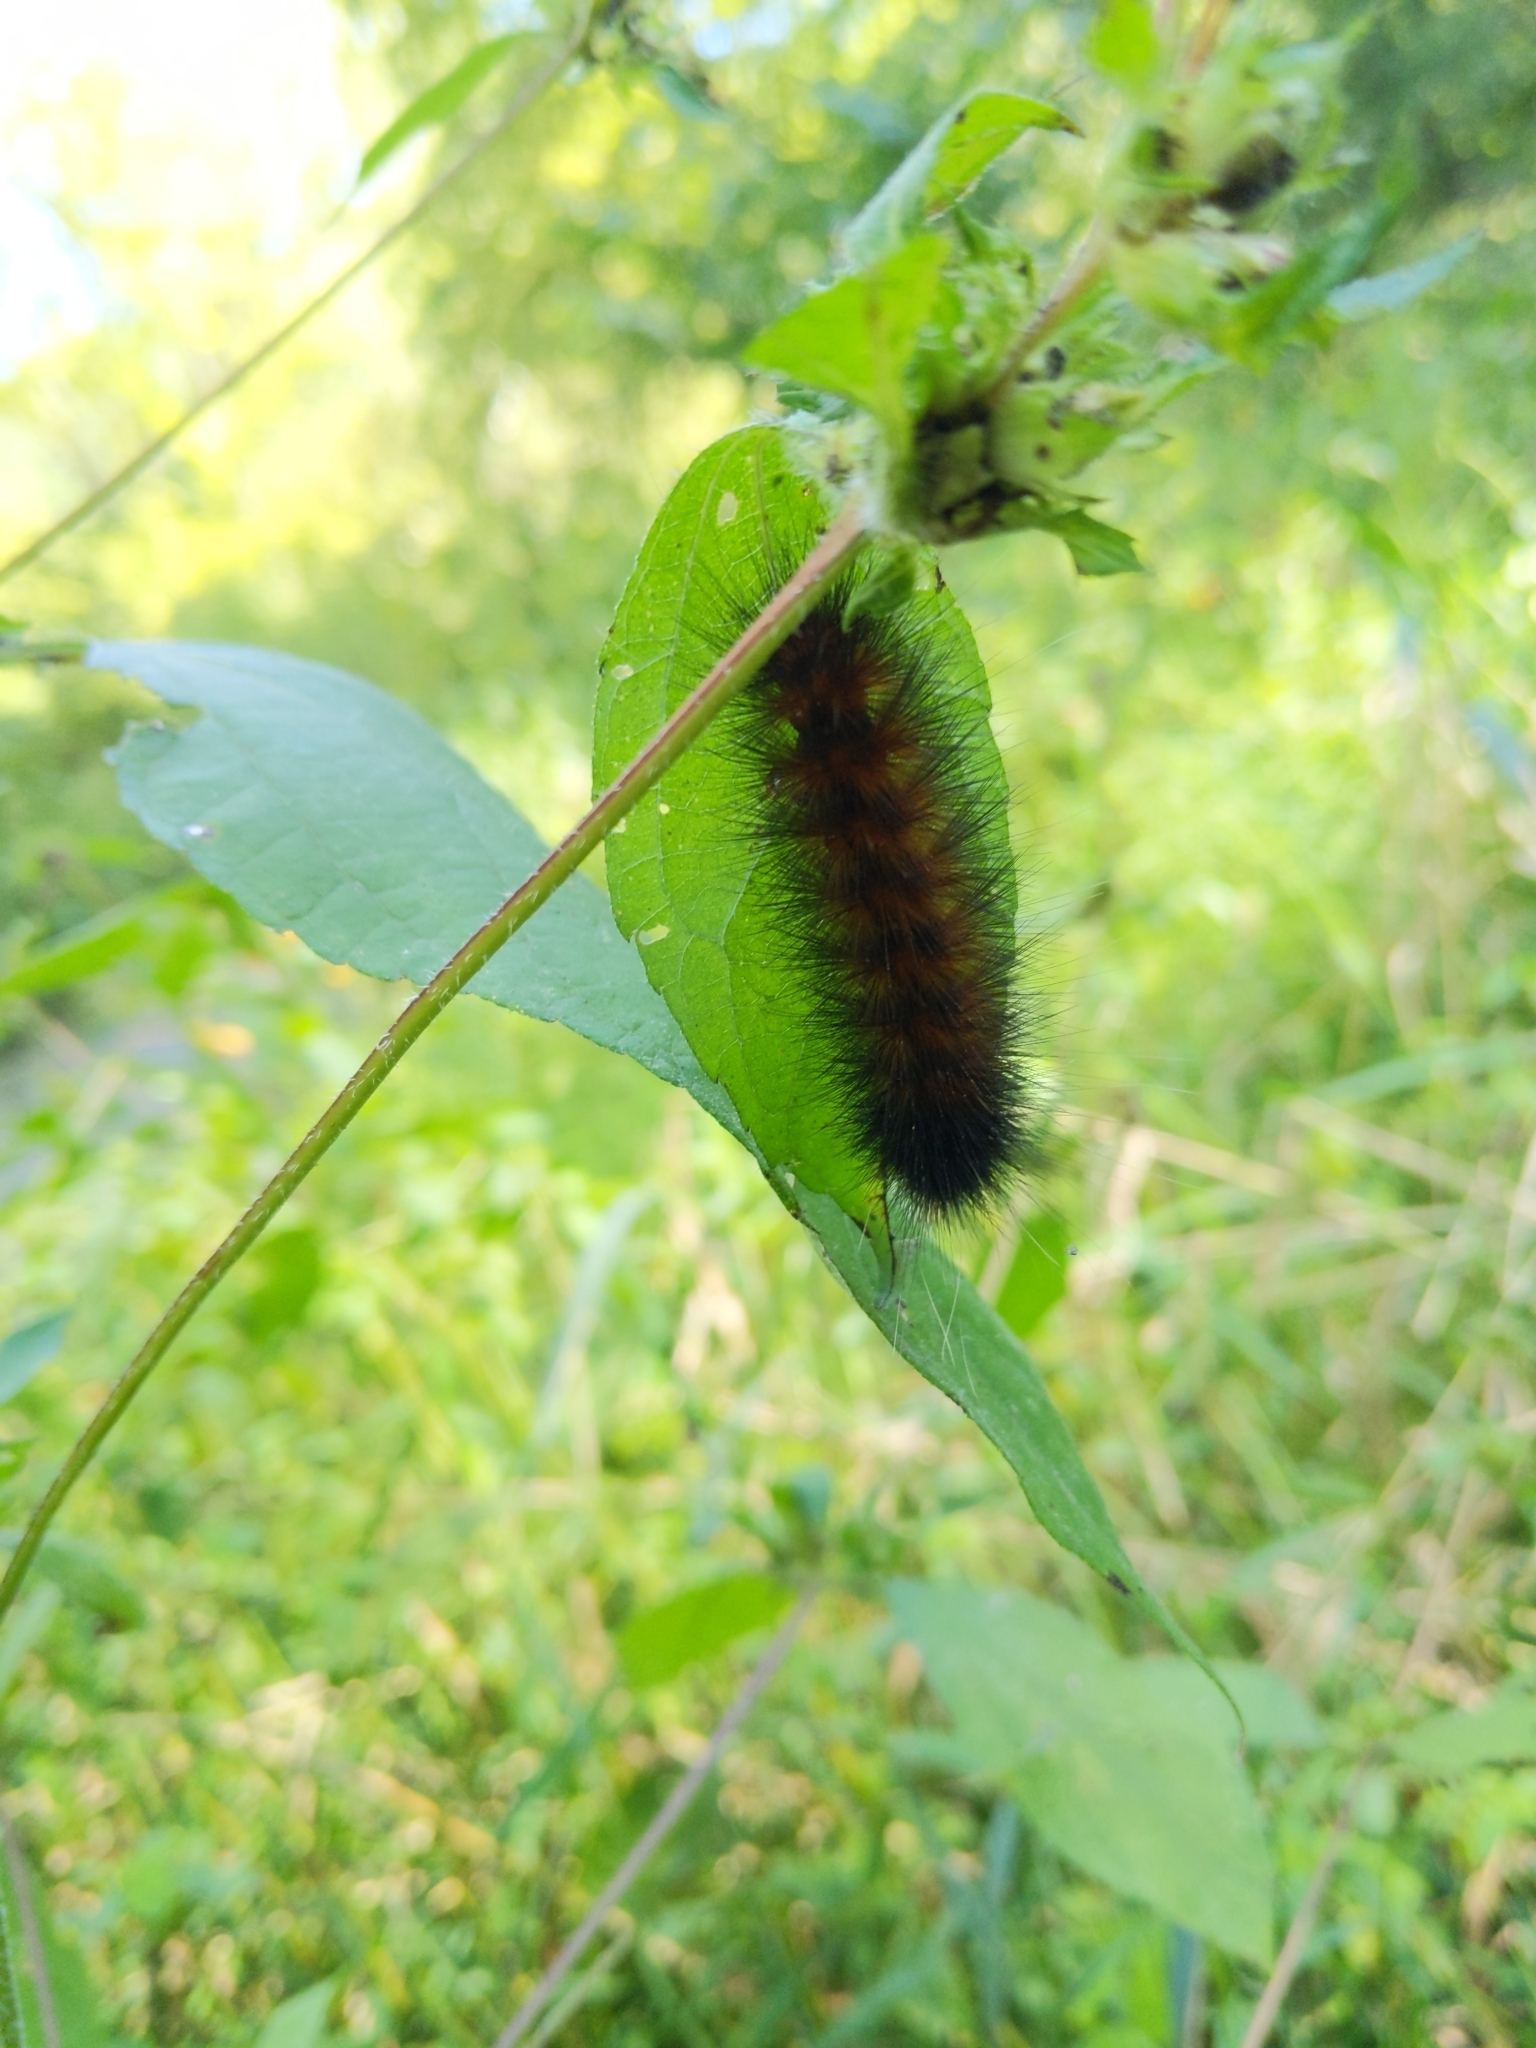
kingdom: Animalia
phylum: Arthropoda
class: Insecta
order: Lepidoptera
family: Erebidae
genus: Spilosoma
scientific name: Spilosoma virginica
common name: Virginia tiger moth
